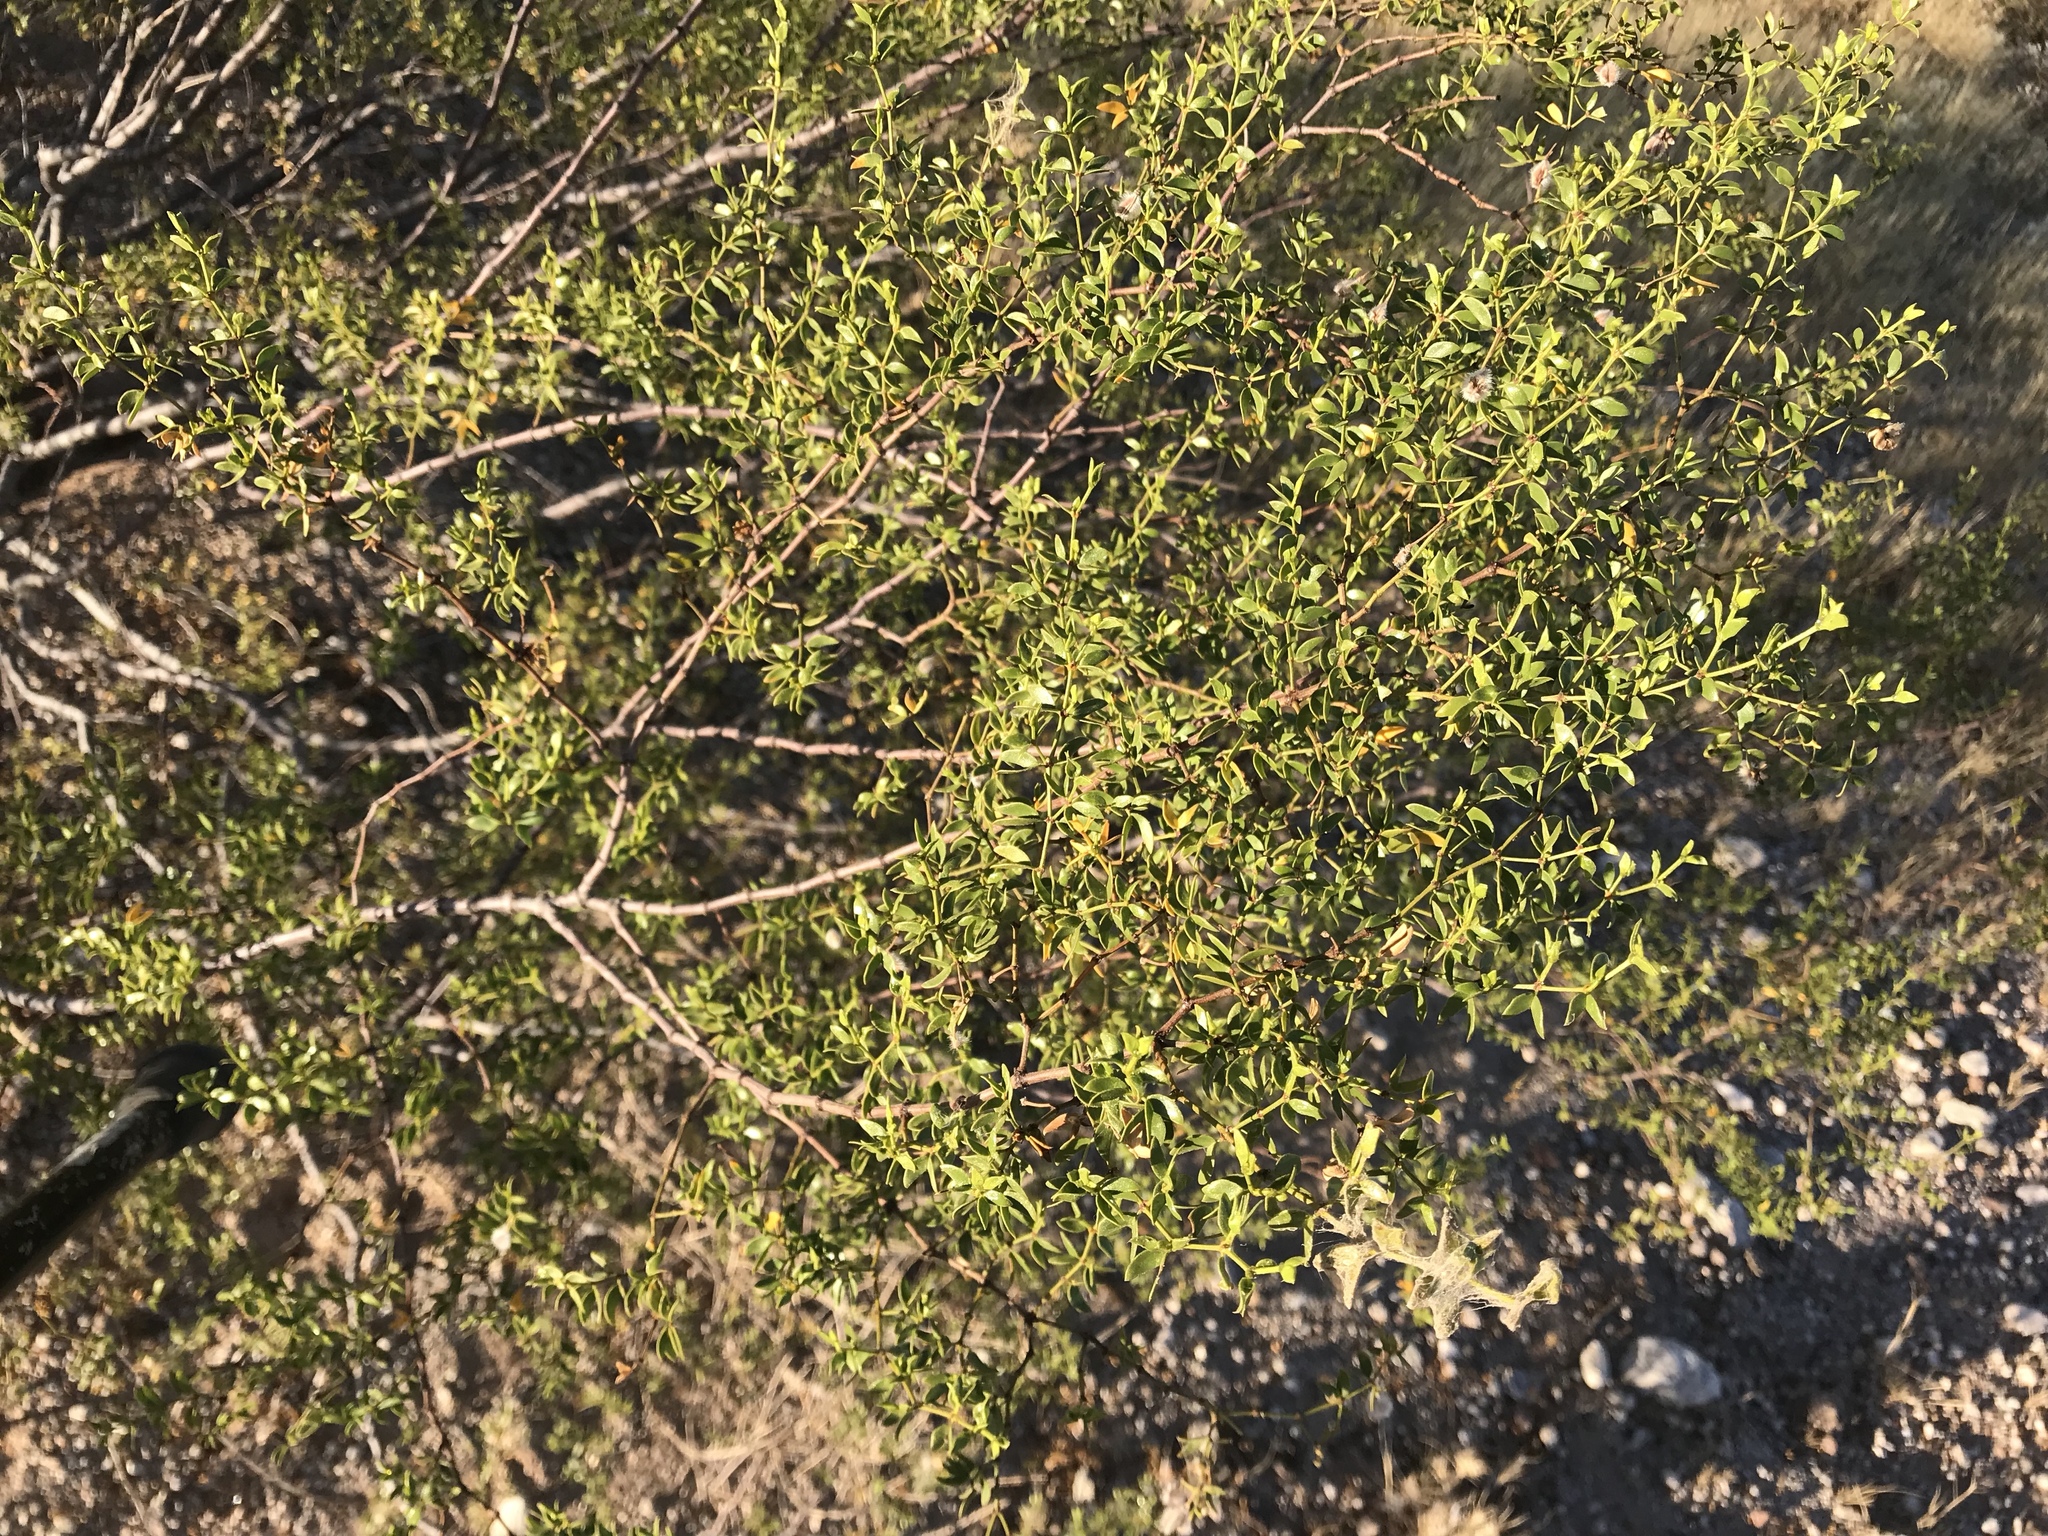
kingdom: Plantae
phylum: Tracheophyta
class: Magnoliopsida
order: Zygophyllales
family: Zygophyllaceae
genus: Larrea
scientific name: Larrea tridentata
